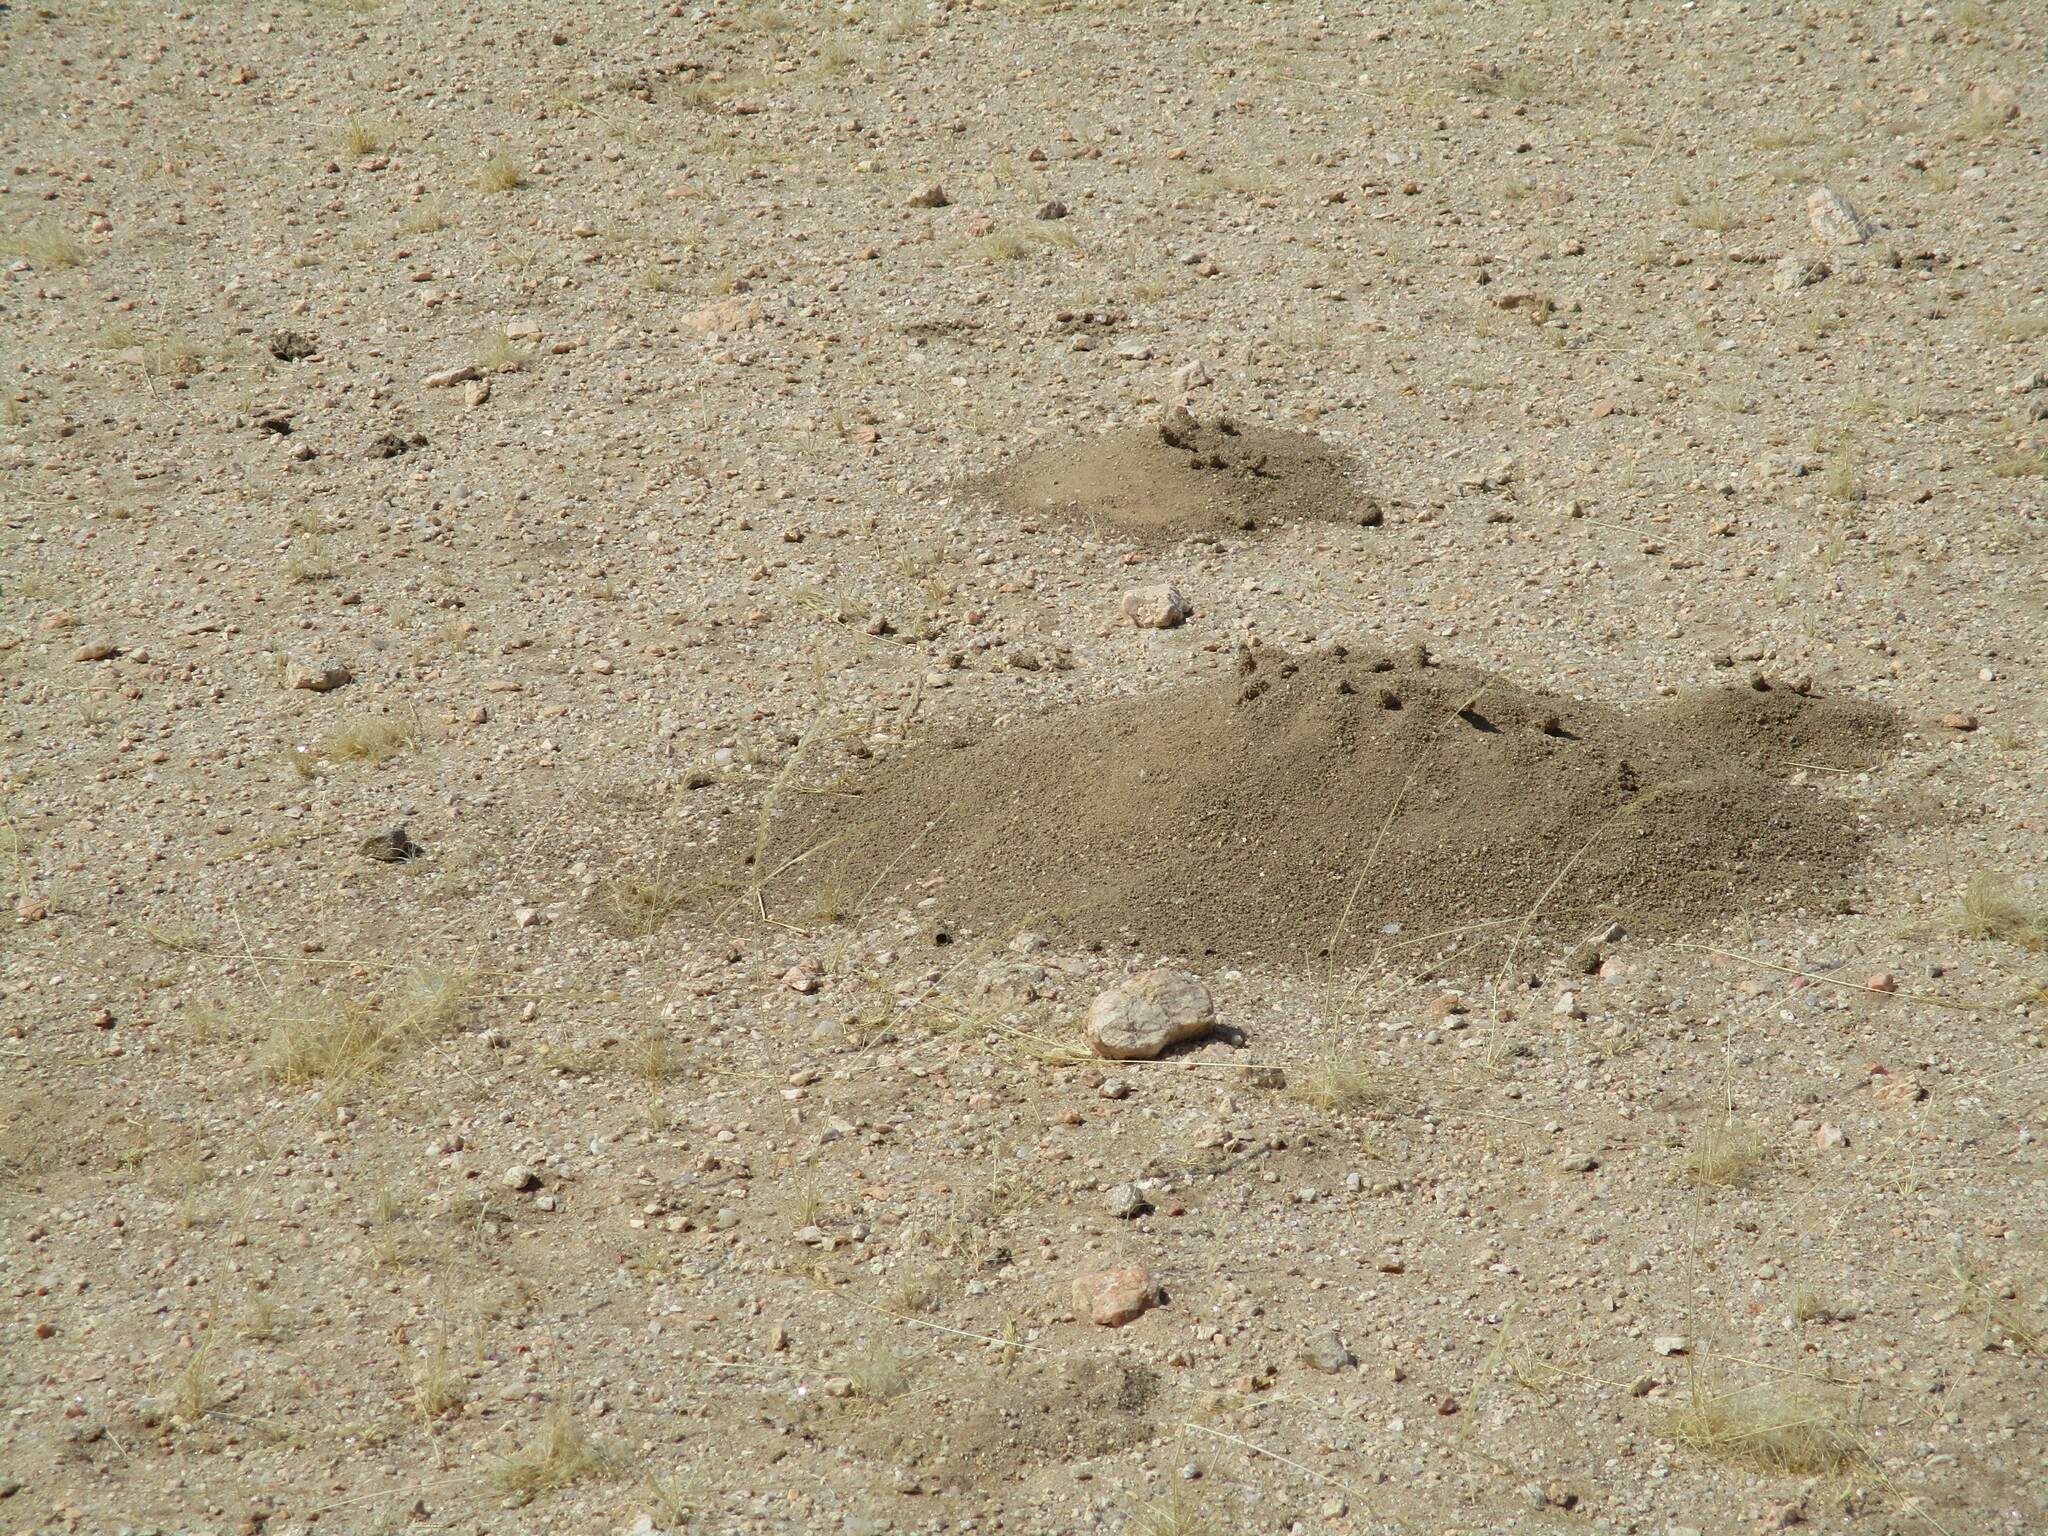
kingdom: Animalia
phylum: Arthropoda
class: Insecta
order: Blattodea
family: Hodotermitidae
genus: Hodotermes
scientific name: Hodotermes mossambicus
